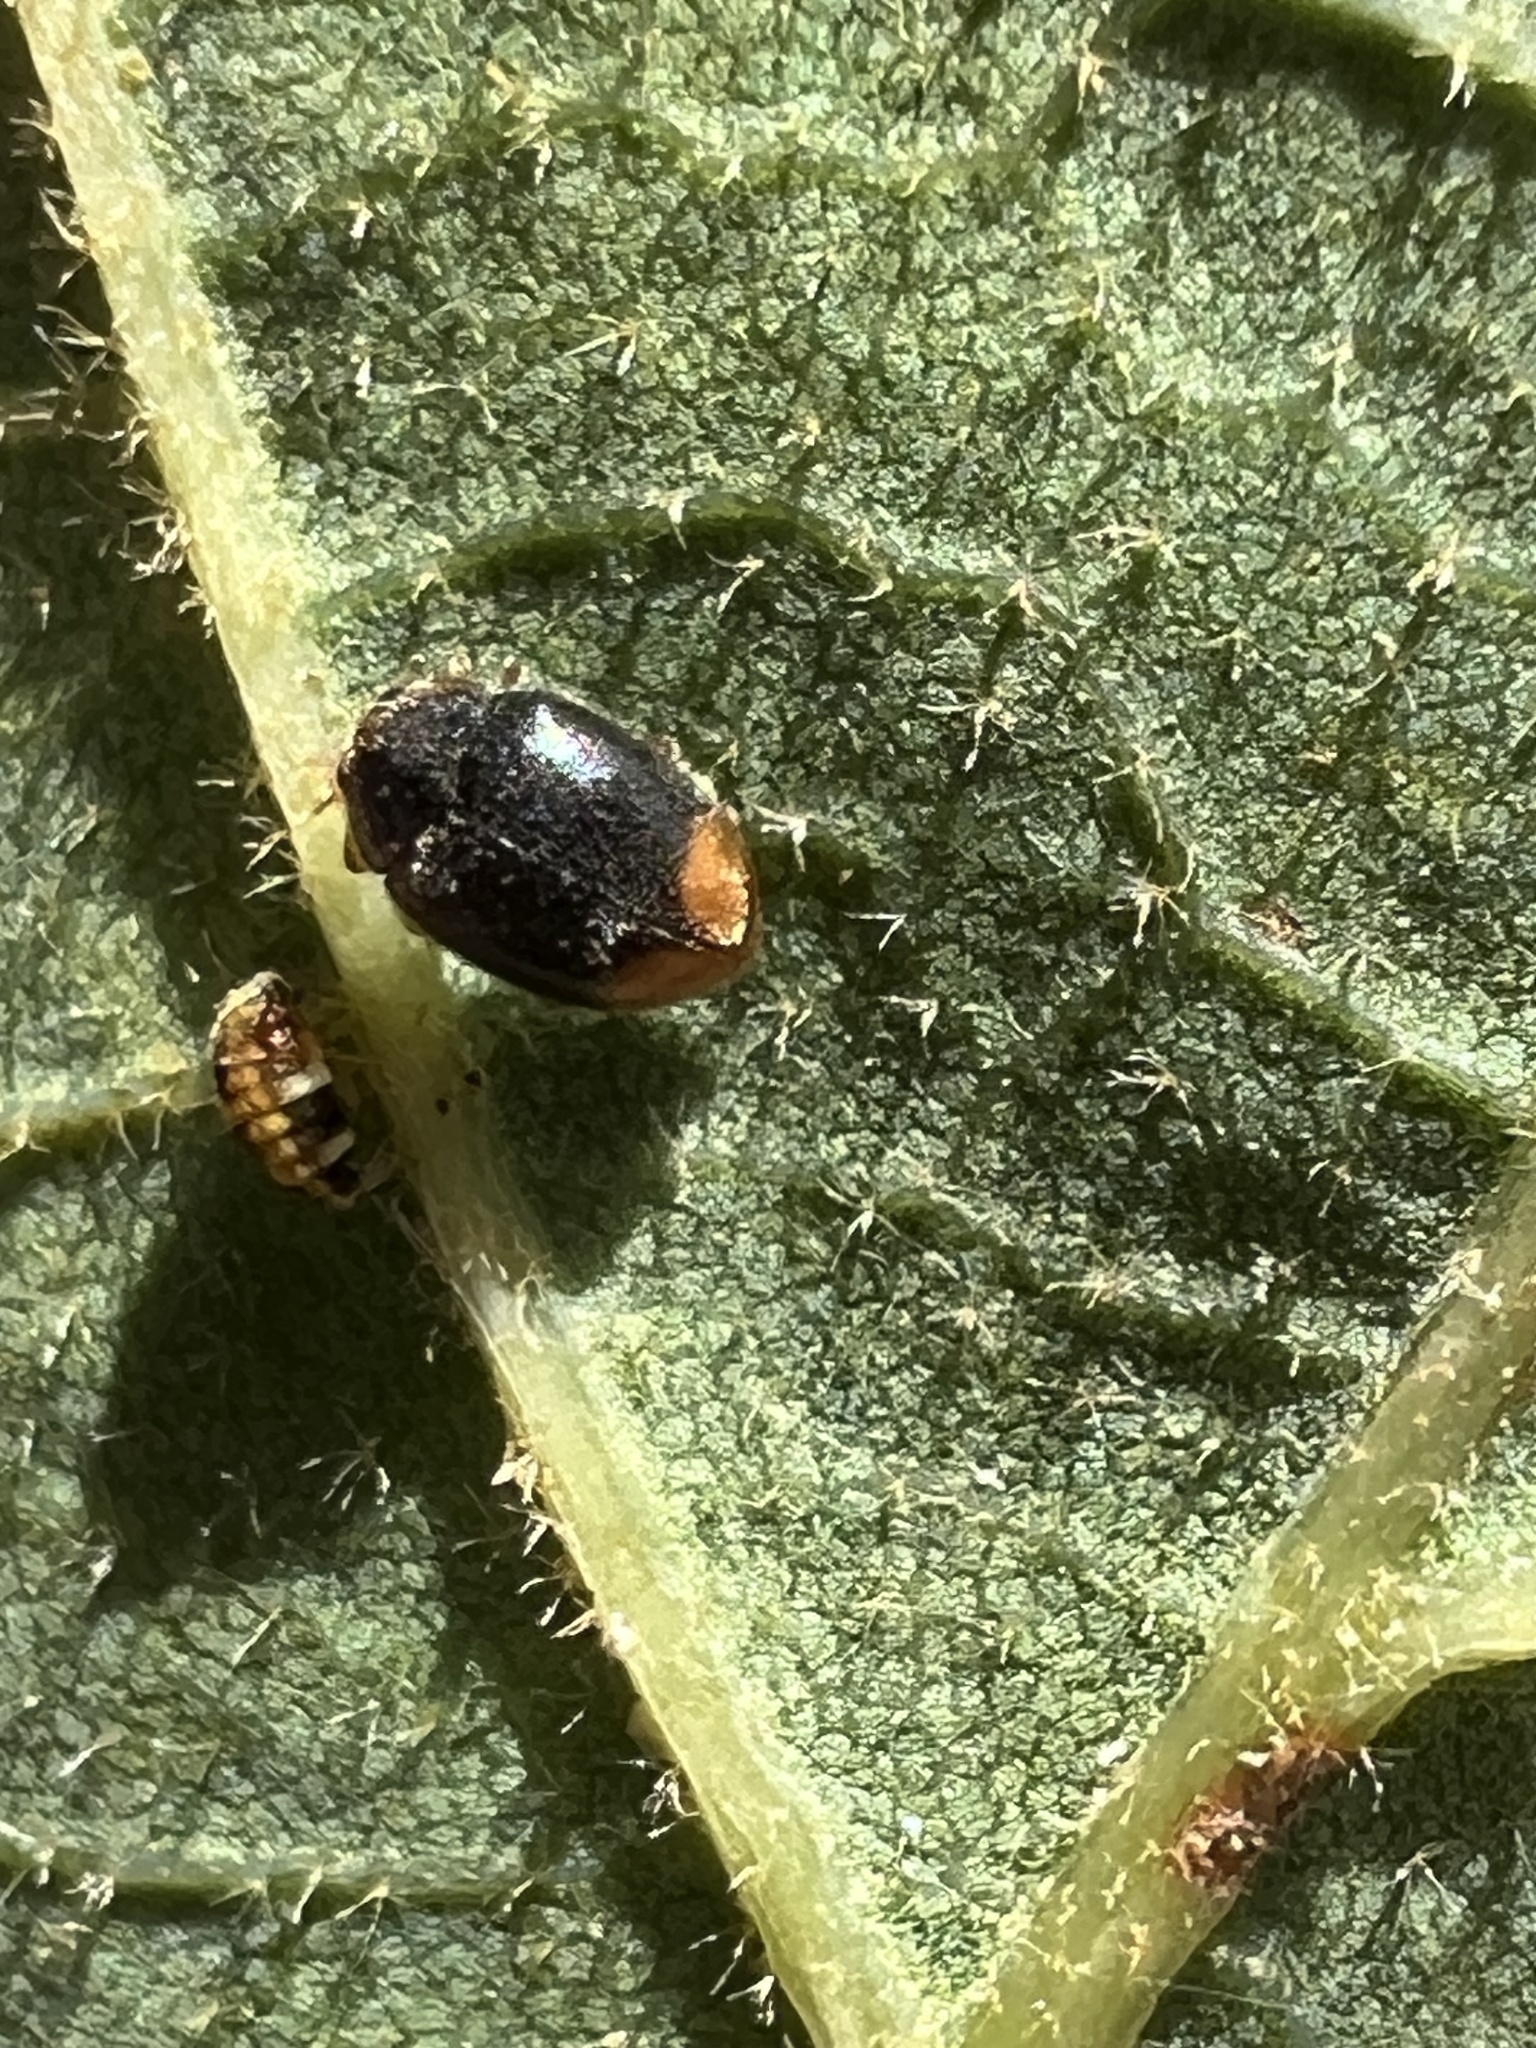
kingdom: Animalia
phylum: Arthropoda
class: Insecta
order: Coleoptera
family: Coccinellidae
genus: Cryptolaemus
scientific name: Cryptolaemus montrouzieri
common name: Mealybug destroyer
